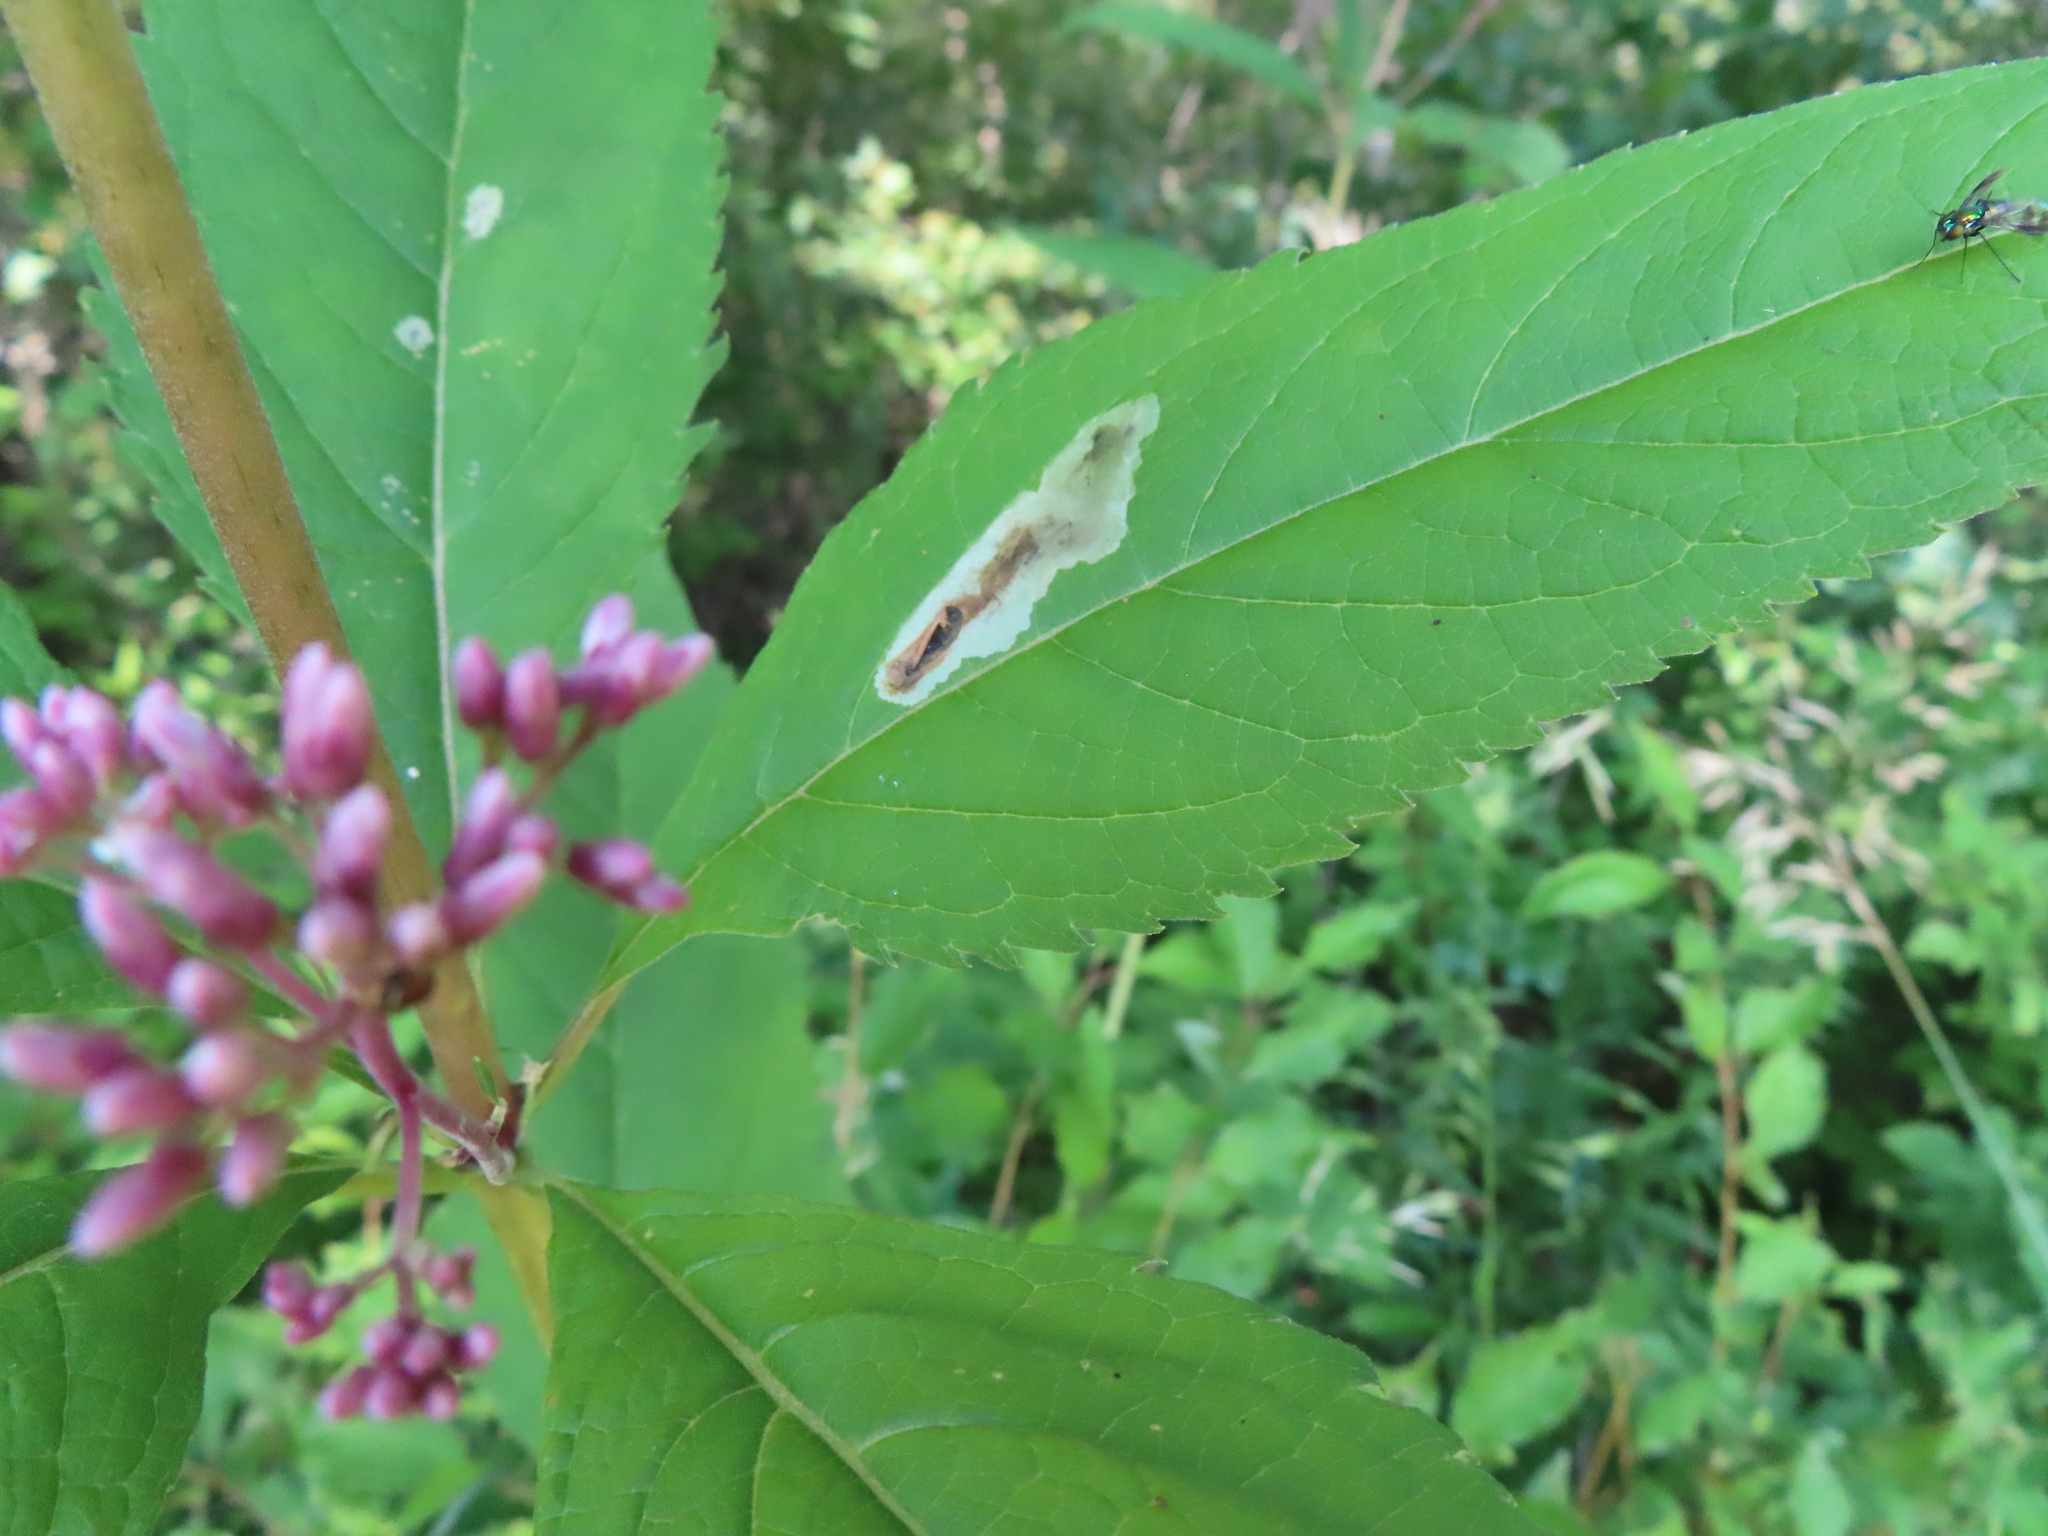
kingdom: Animalia
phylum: Arthropoda
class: Insecta
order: Diptera
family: Agromyzidae
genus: Calycomyza
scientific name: Calycomyza flavinotum
